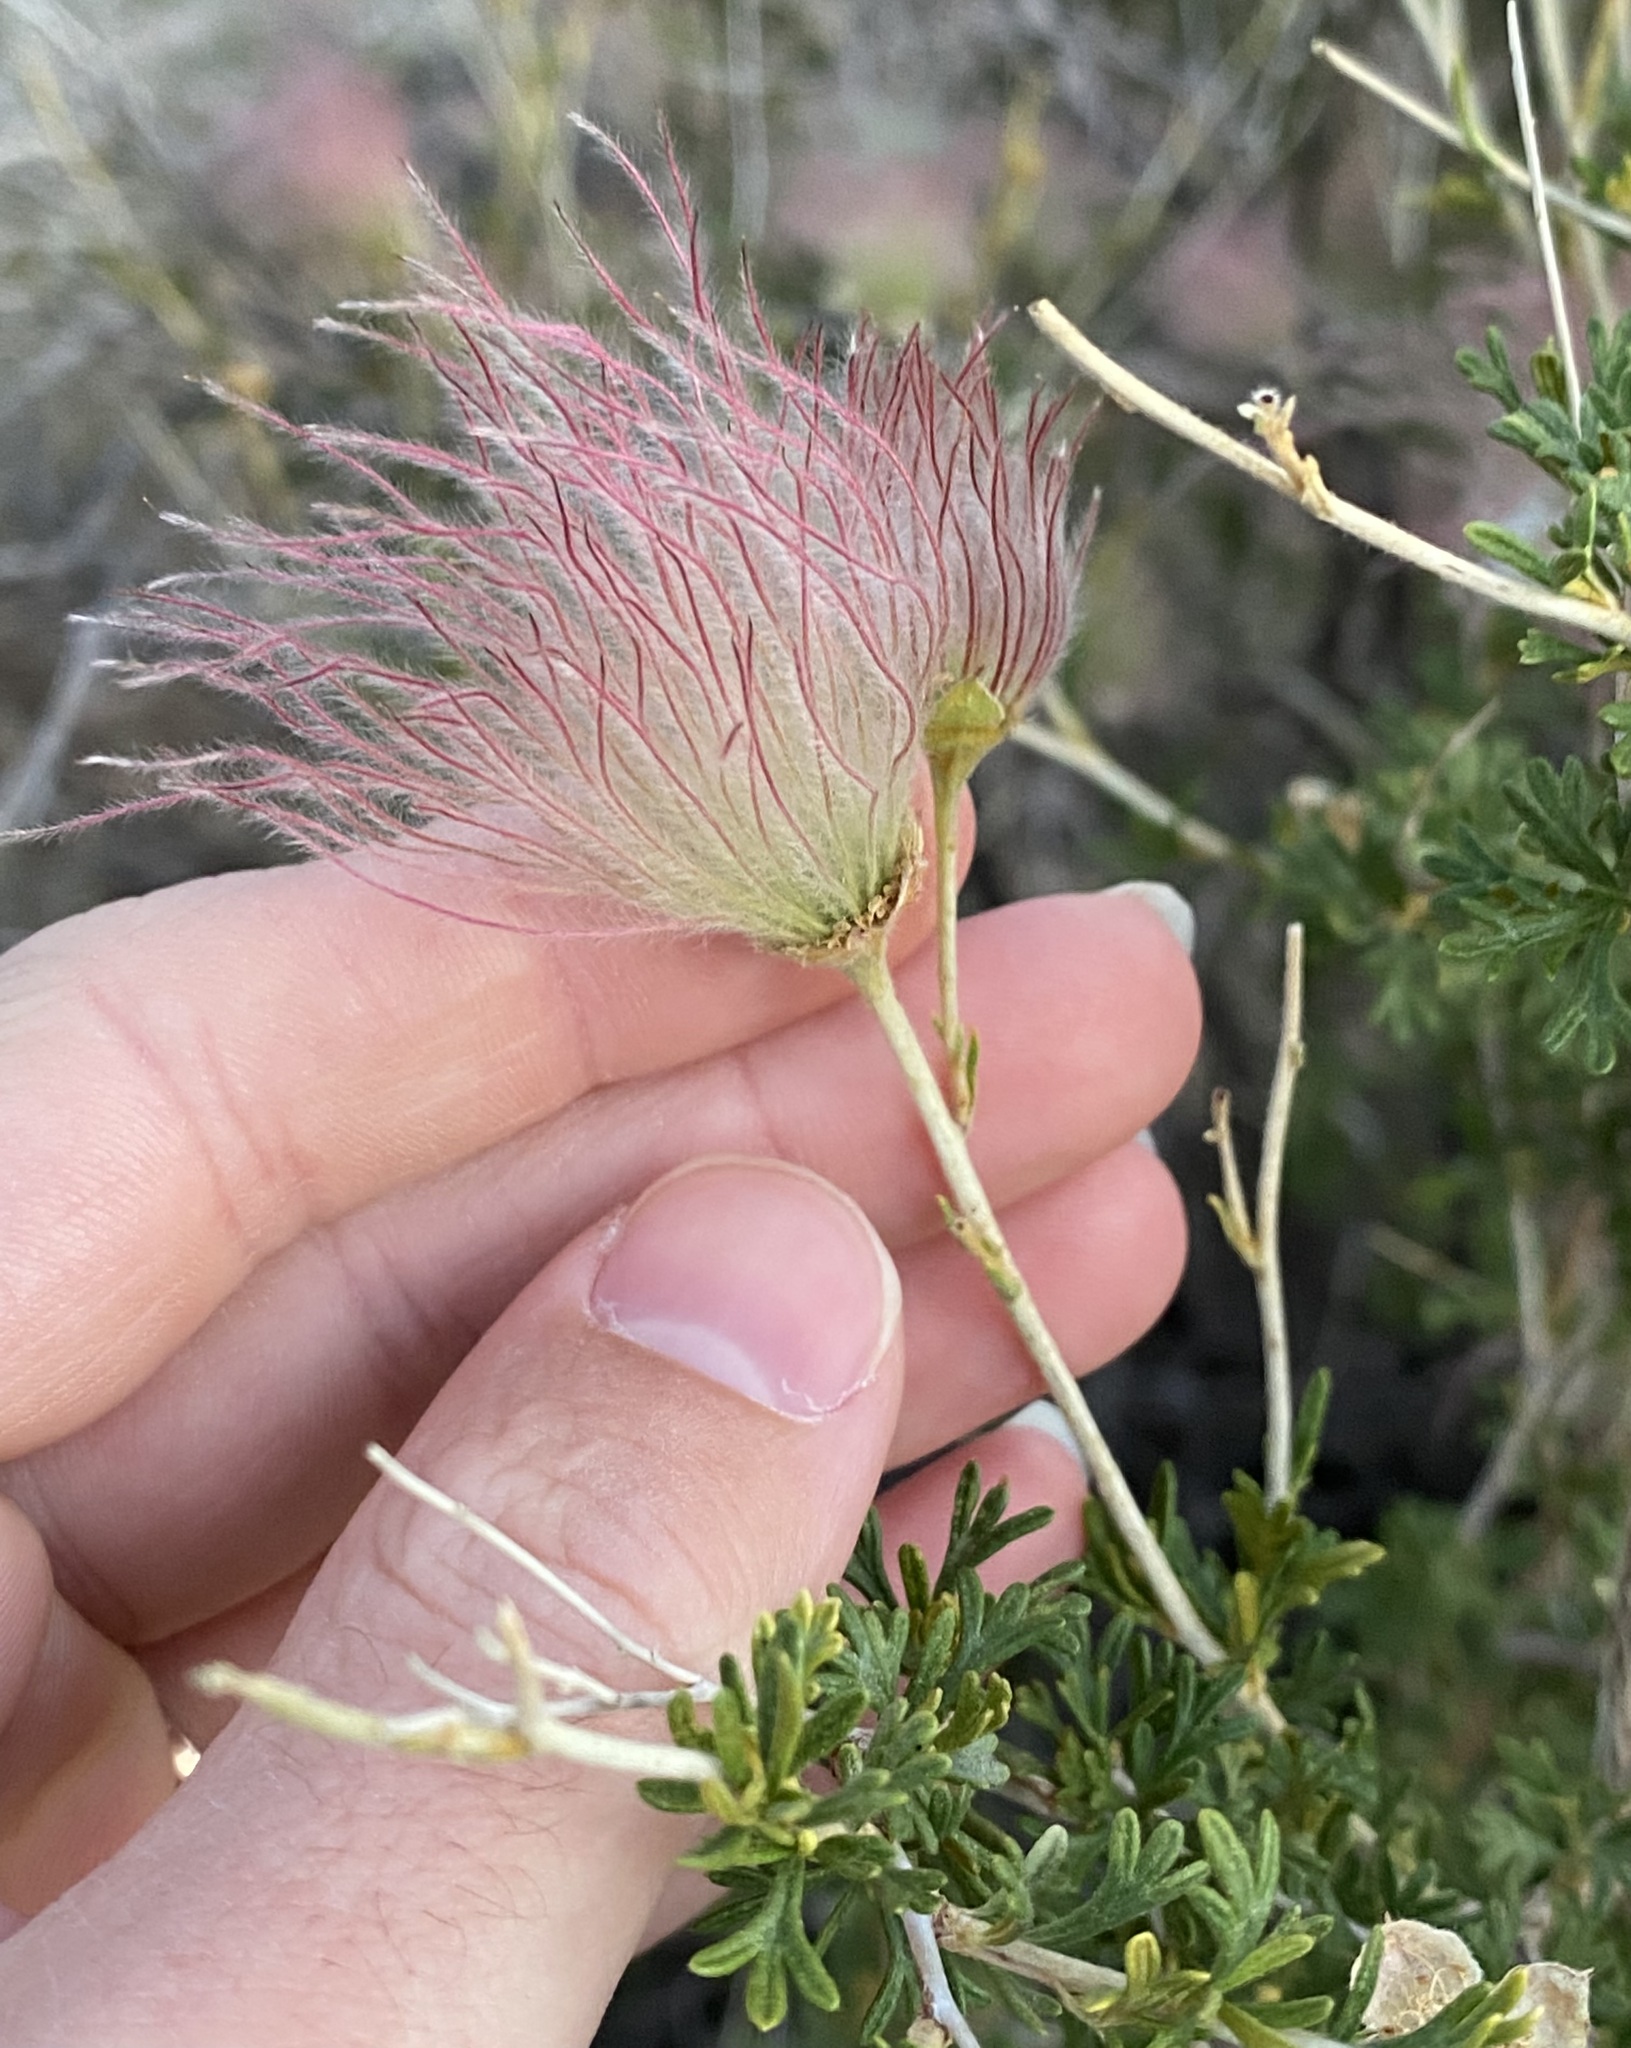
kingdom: Plantae
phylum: Tracheophyta
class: Magnoliopsida
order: Rosales
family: Rosaceae
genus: Fallugia
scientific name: Fallugia paradoxa
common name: Apache-plume
